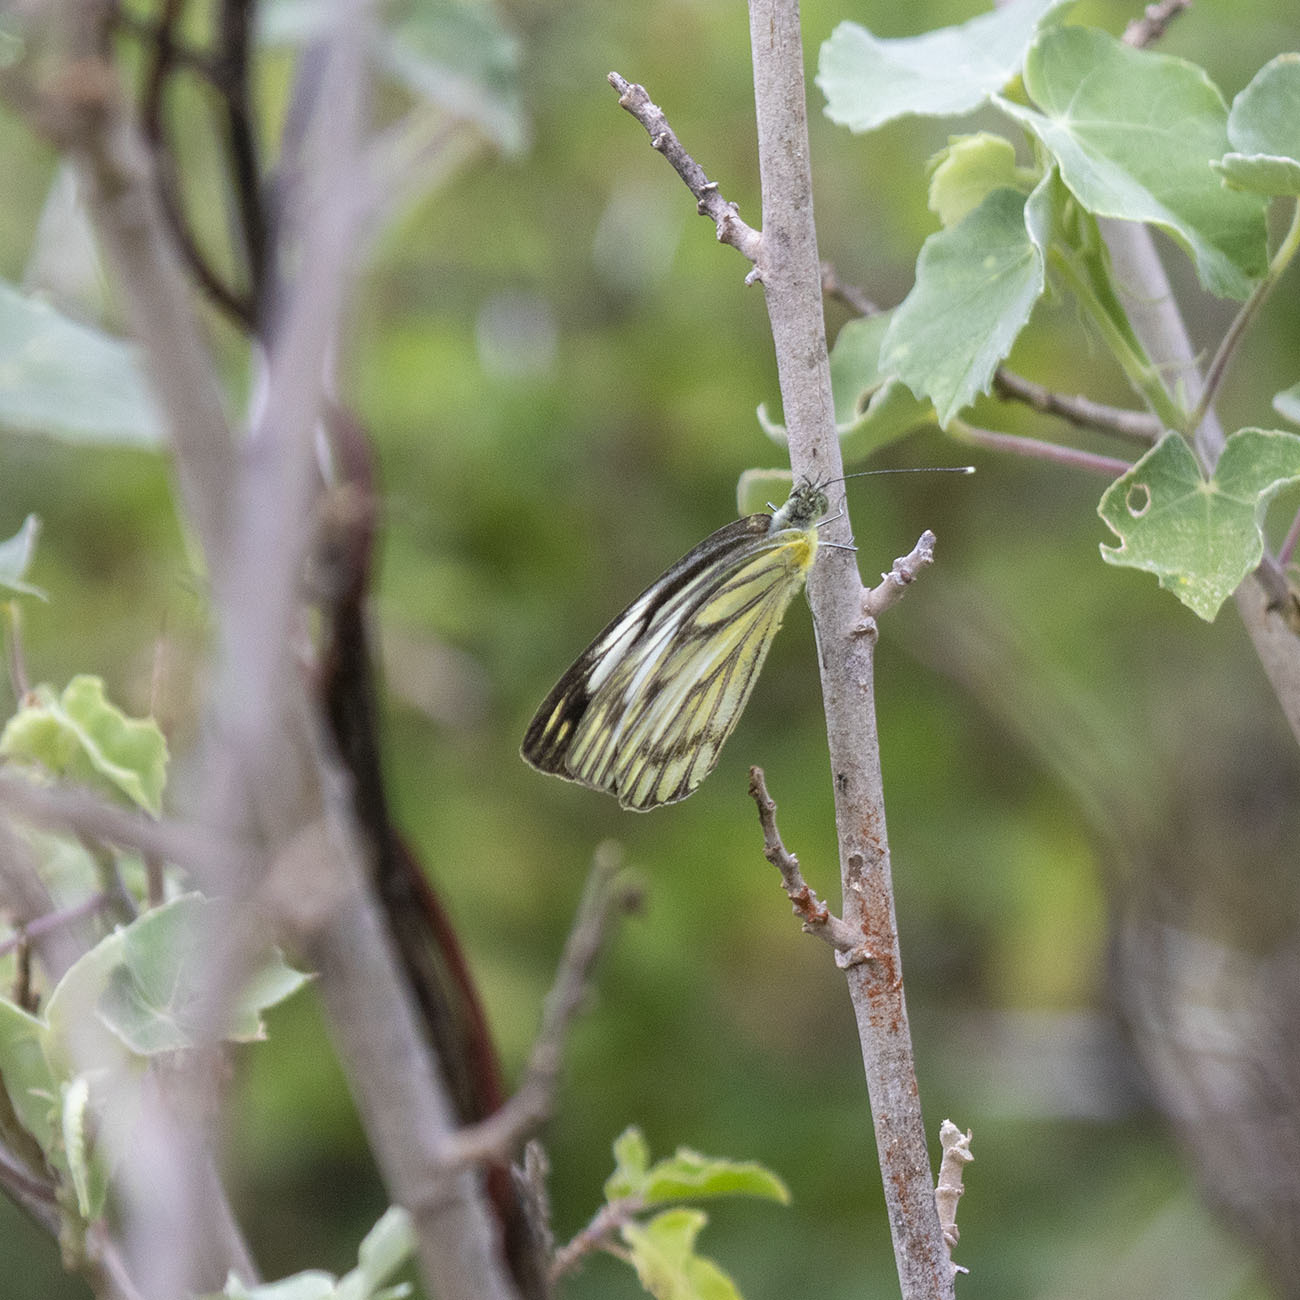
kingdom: Animalia
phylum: Arthropoda
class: Insecta
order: Lepidoptera
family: Pieridae
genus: Cepora
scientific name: Cepora nerissa
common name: Common gull
